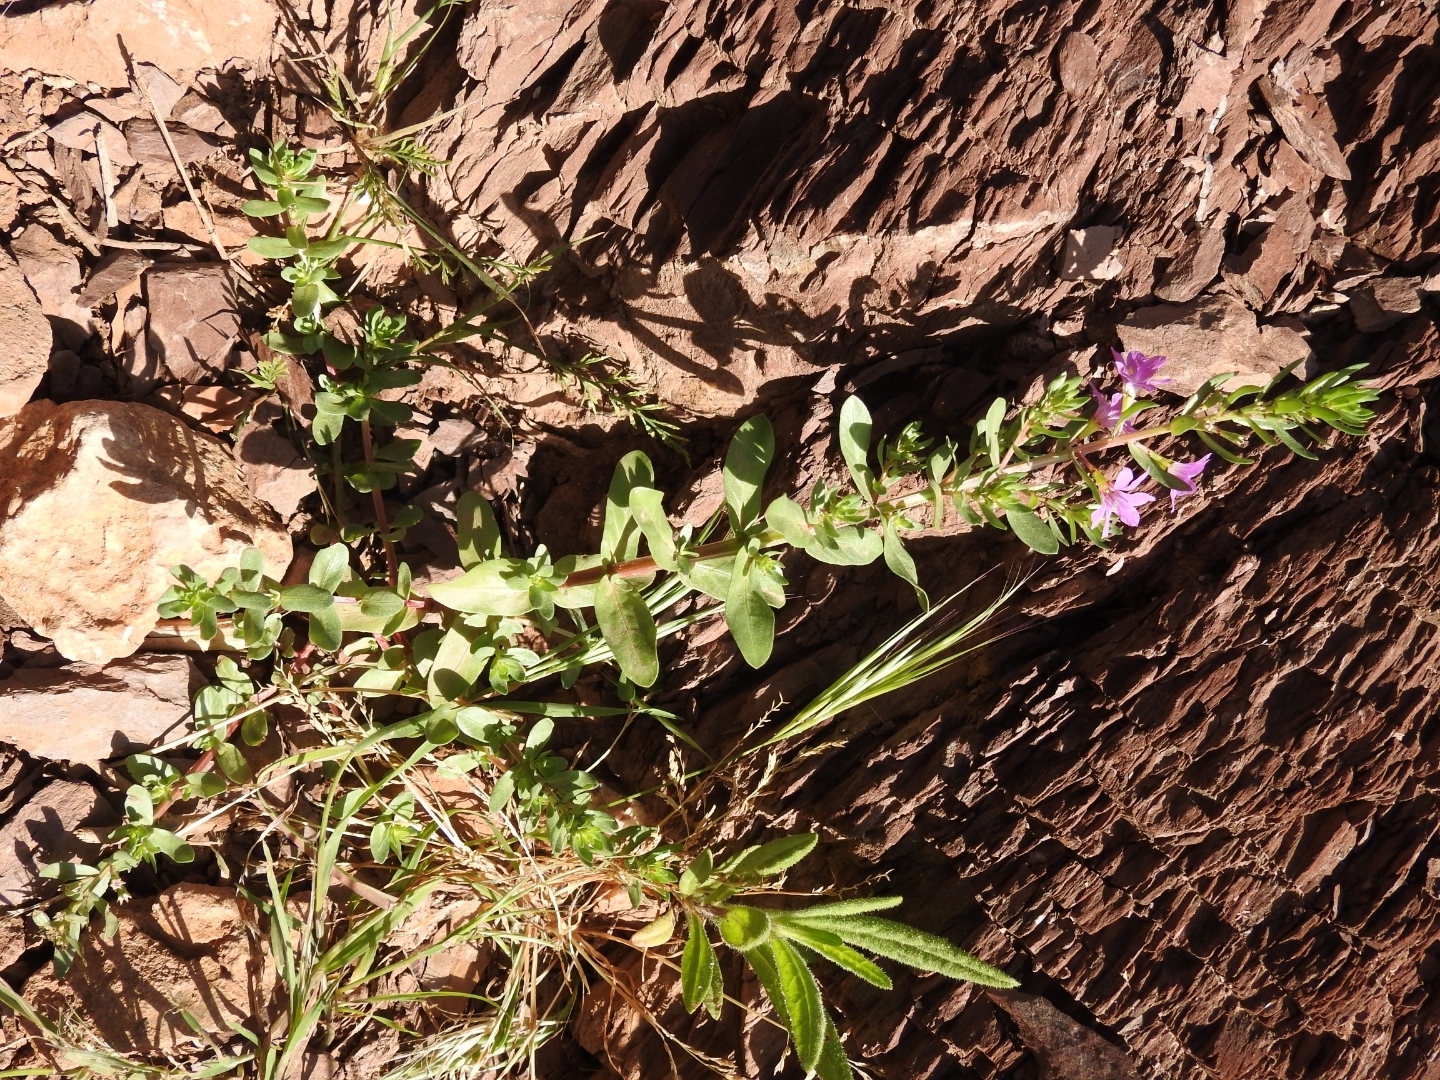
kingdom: Plantae
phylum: Tracheophyta
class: Magnoliopsida
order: Myrtales
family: Lythraceae
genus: Lythrum
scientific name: Lythrum junceum
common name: False grass-poly
